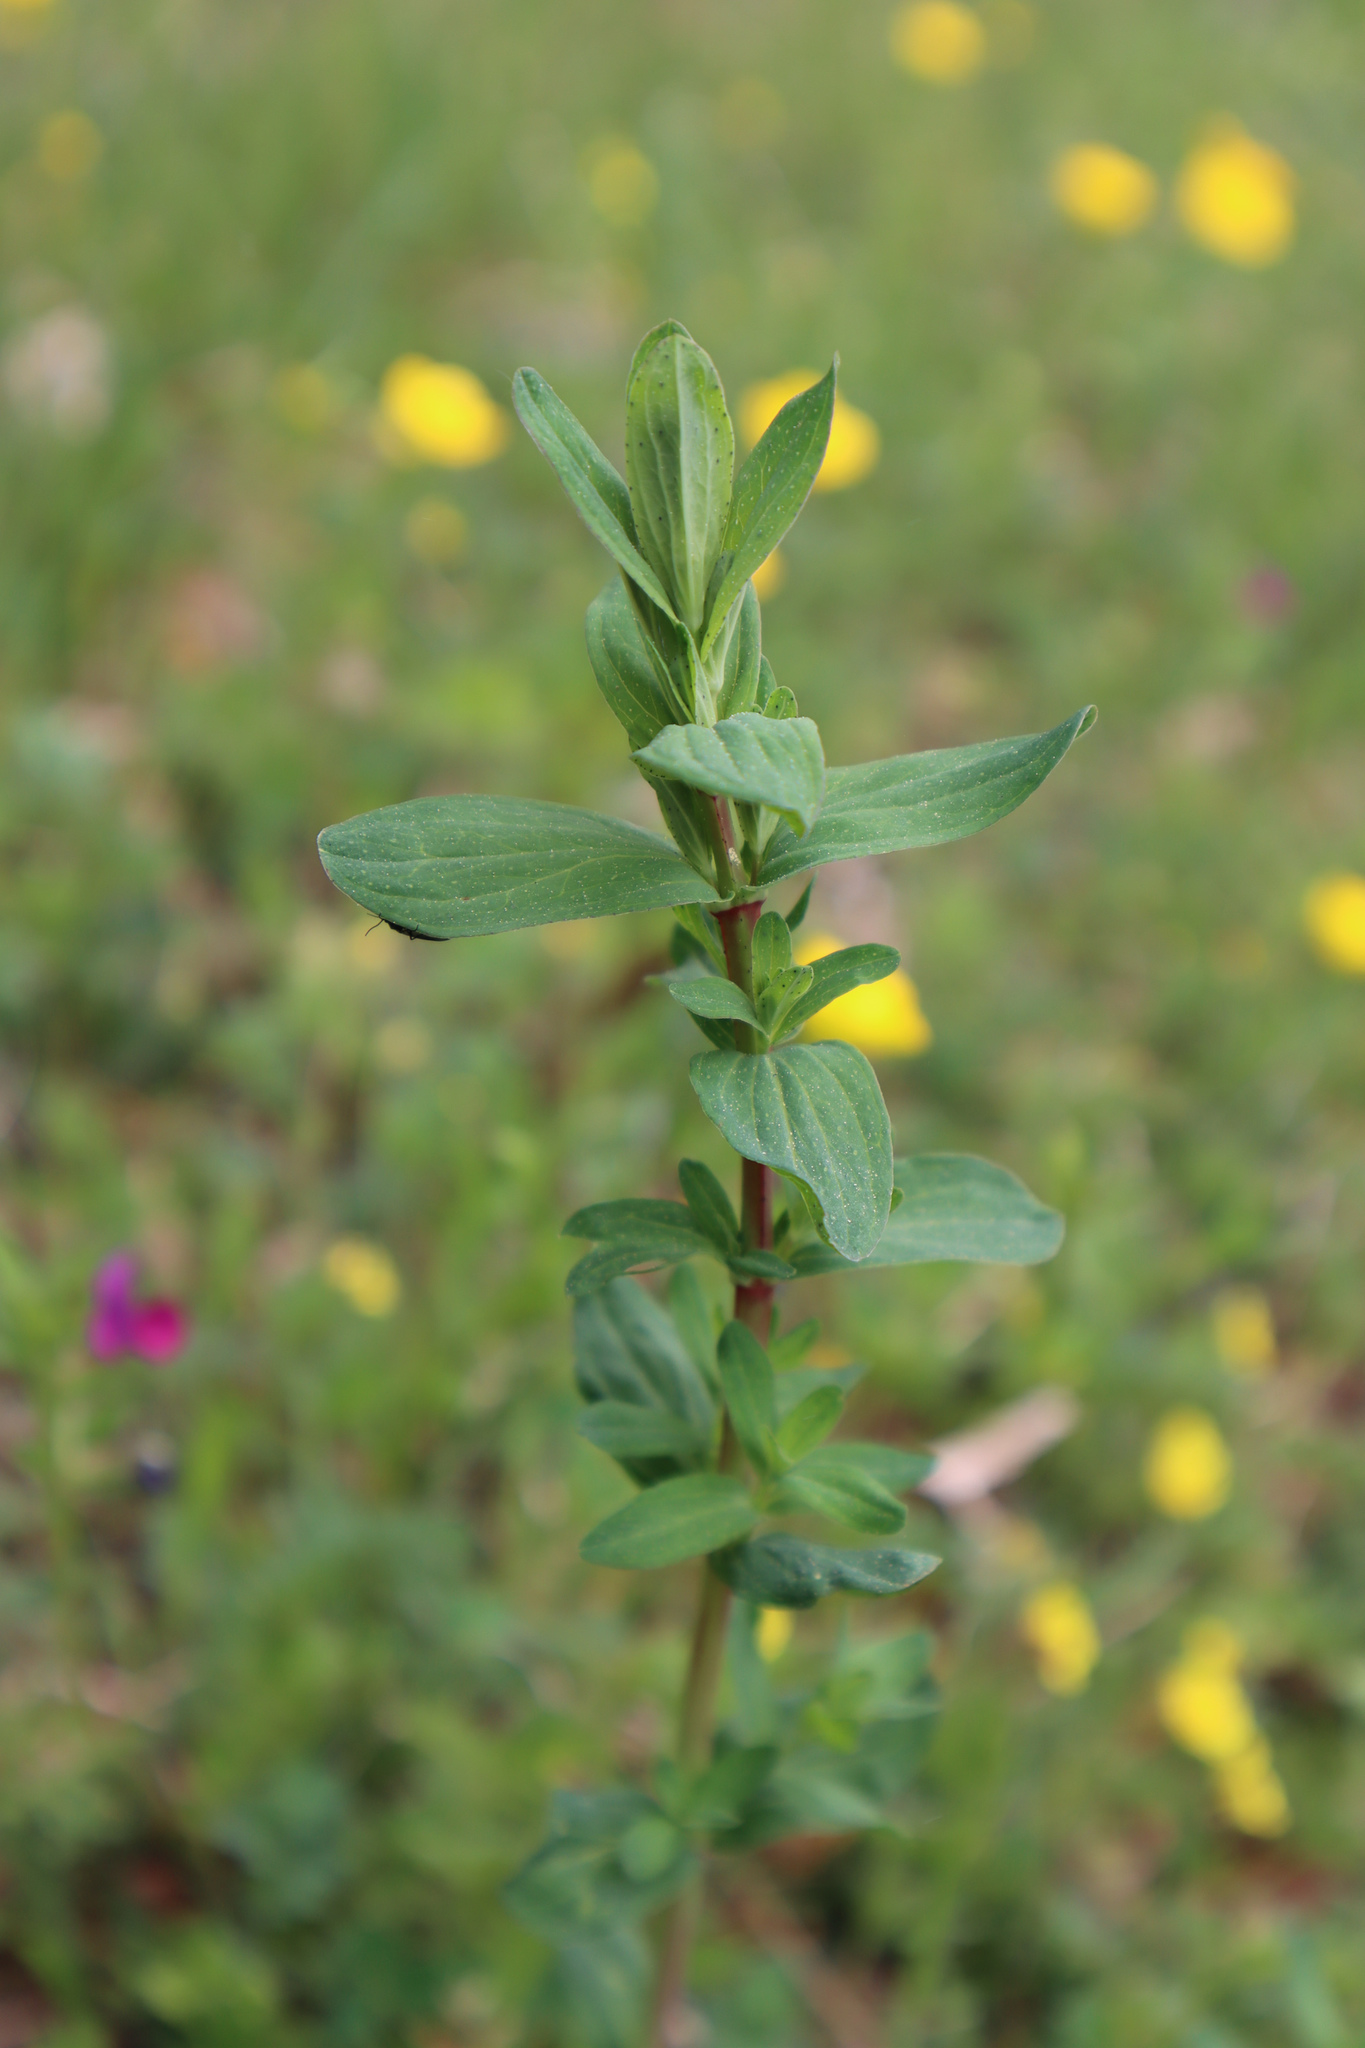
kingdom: Plantae
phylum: Tracheophyta
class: Magnoliopsida
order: Malpighiales
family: Hypericaceae
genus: Hypericum
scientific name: Hypericum perforatum
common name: Common st. johnswort
